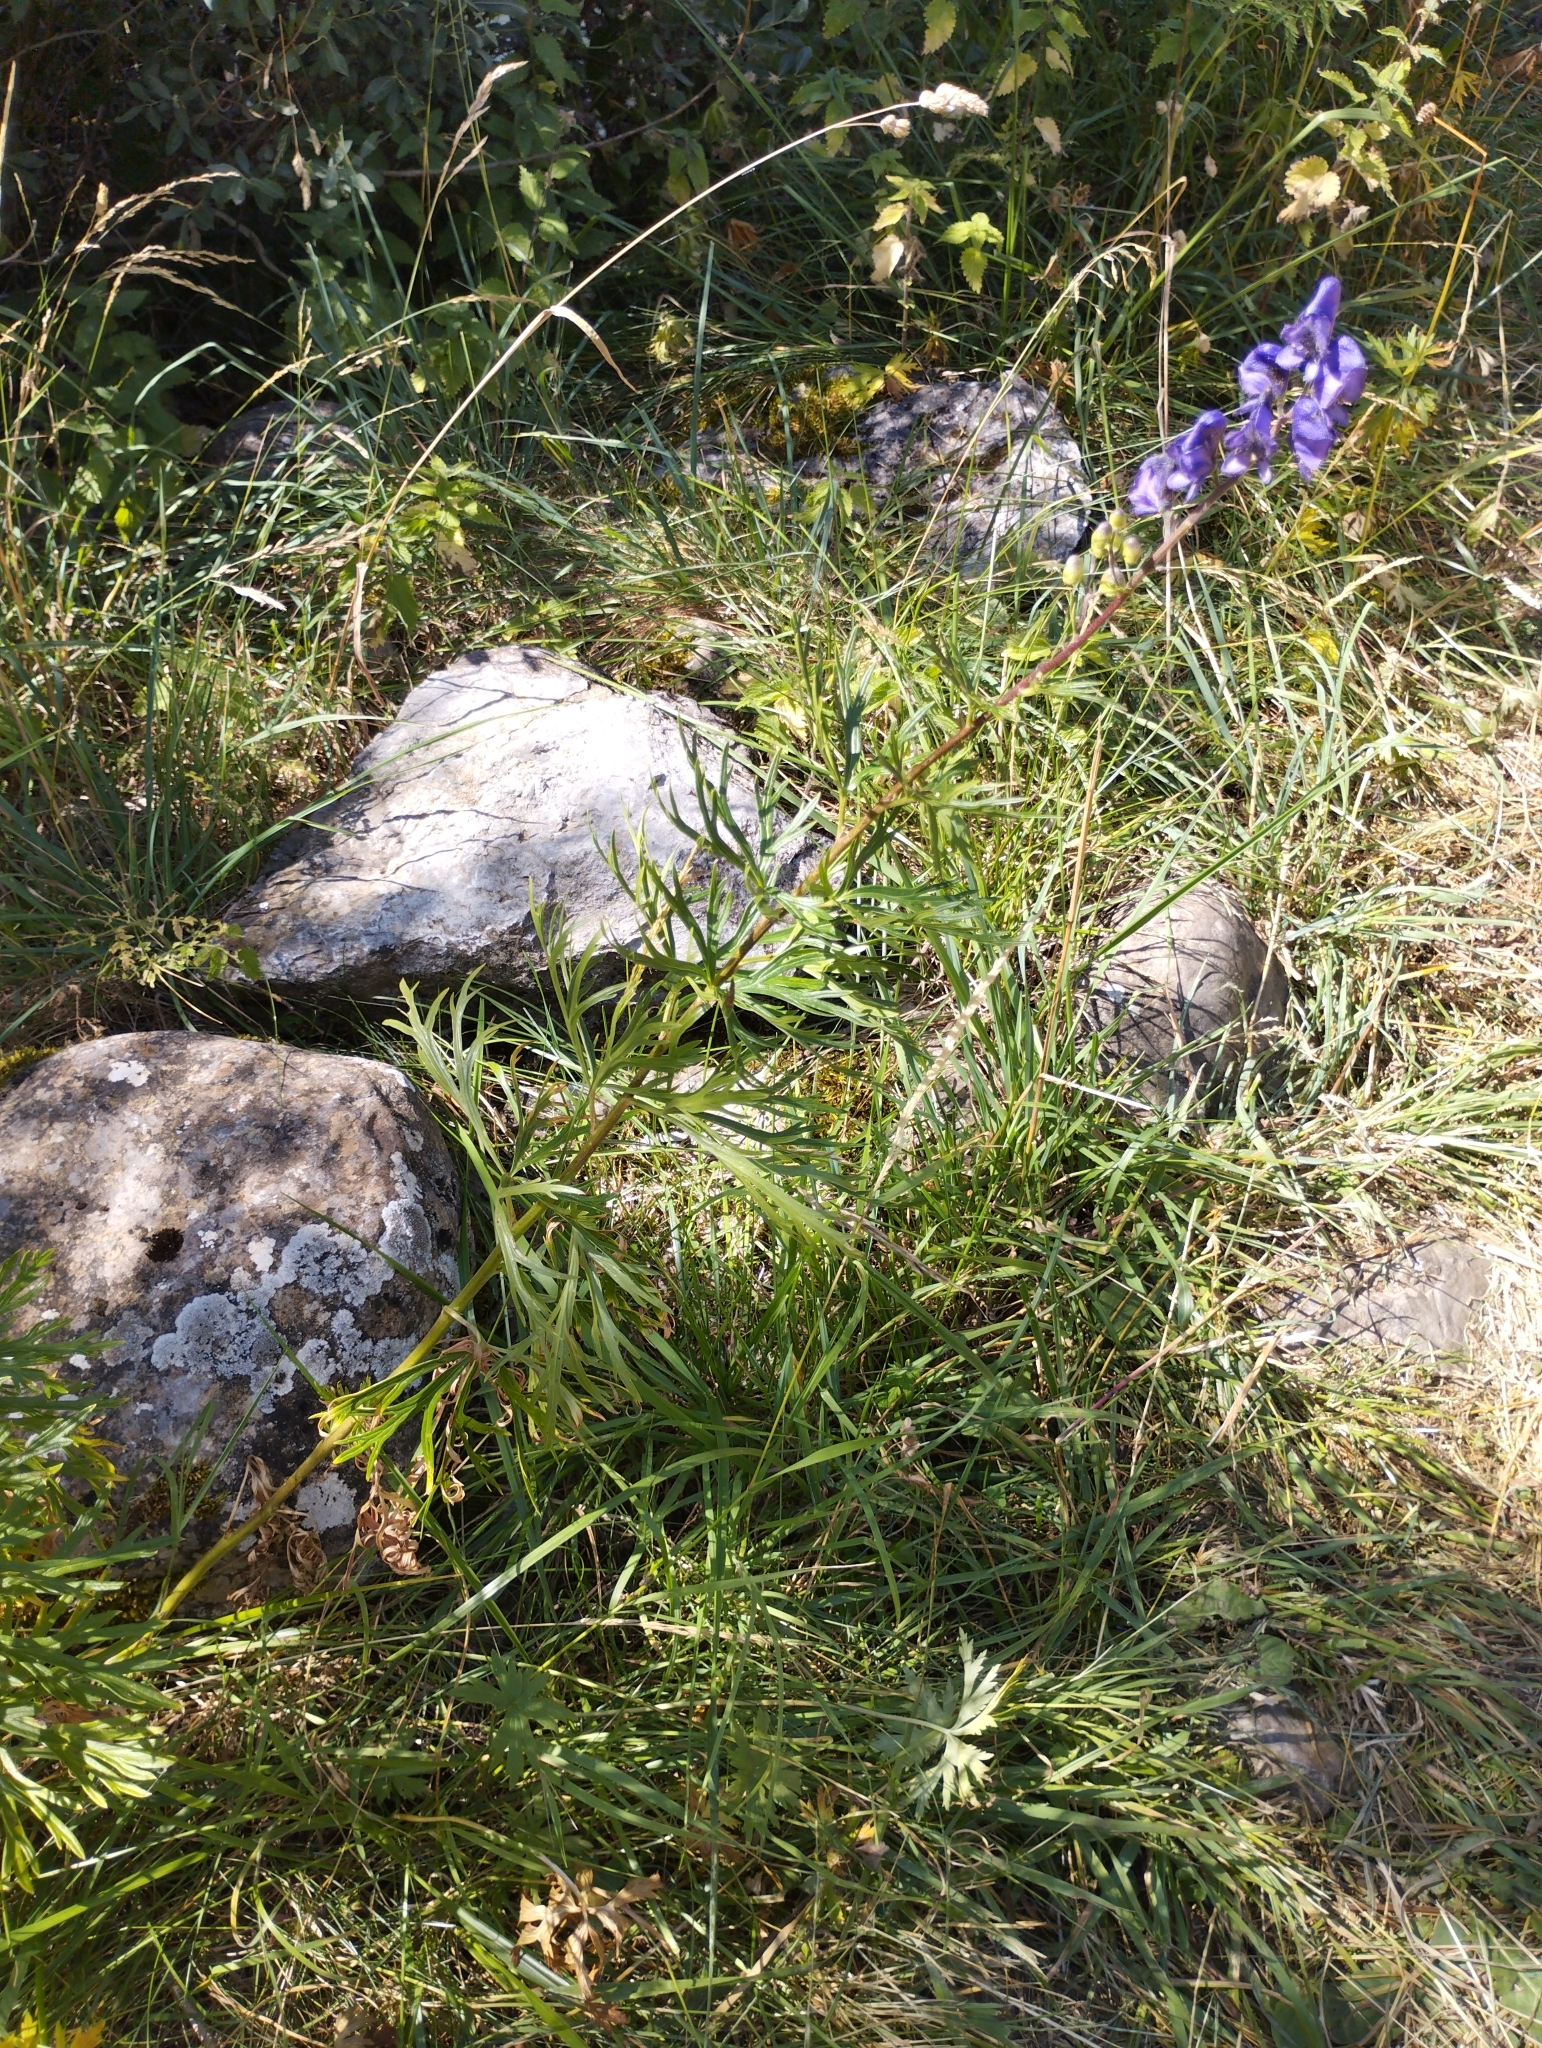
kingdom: Plantae
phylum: Tracheophyta
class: Magnoliopsida
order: Ranunculales
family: Ranunculaceae
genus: Aconitum
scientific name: Aconitum napellus
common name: Garden monkshood
